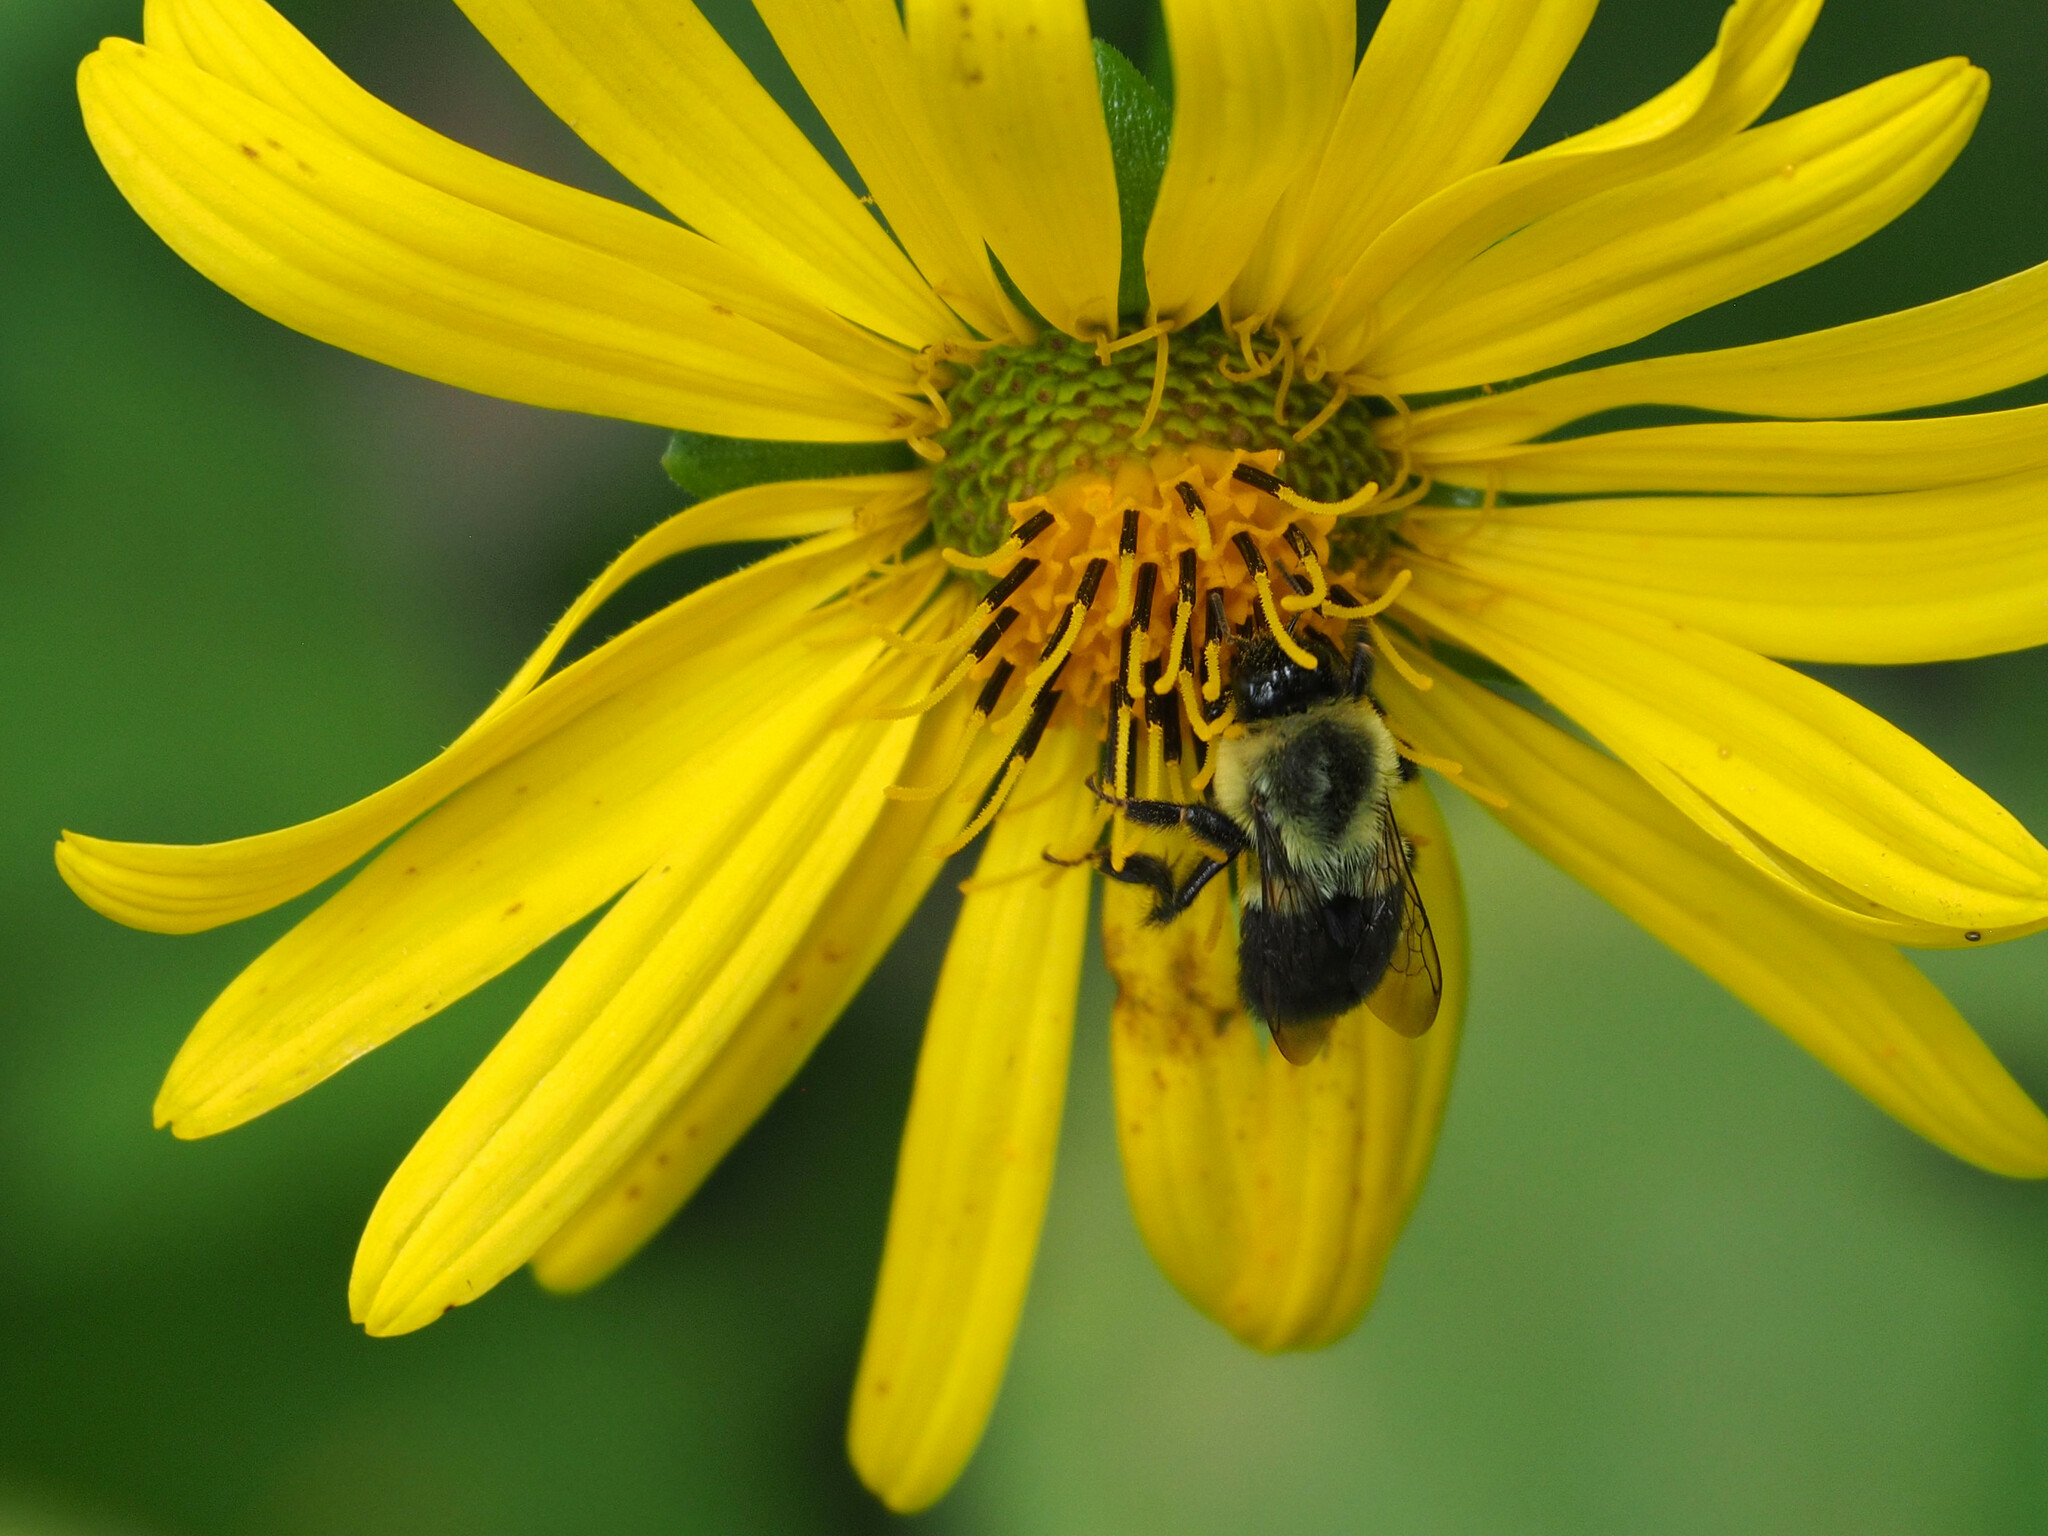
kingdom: Animalia
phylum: Arthropoda
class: Insecta
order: Hymenoptera
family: Apidae
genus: Bombus
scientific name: Bombus impatiens
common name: Common eastern bumble bee
